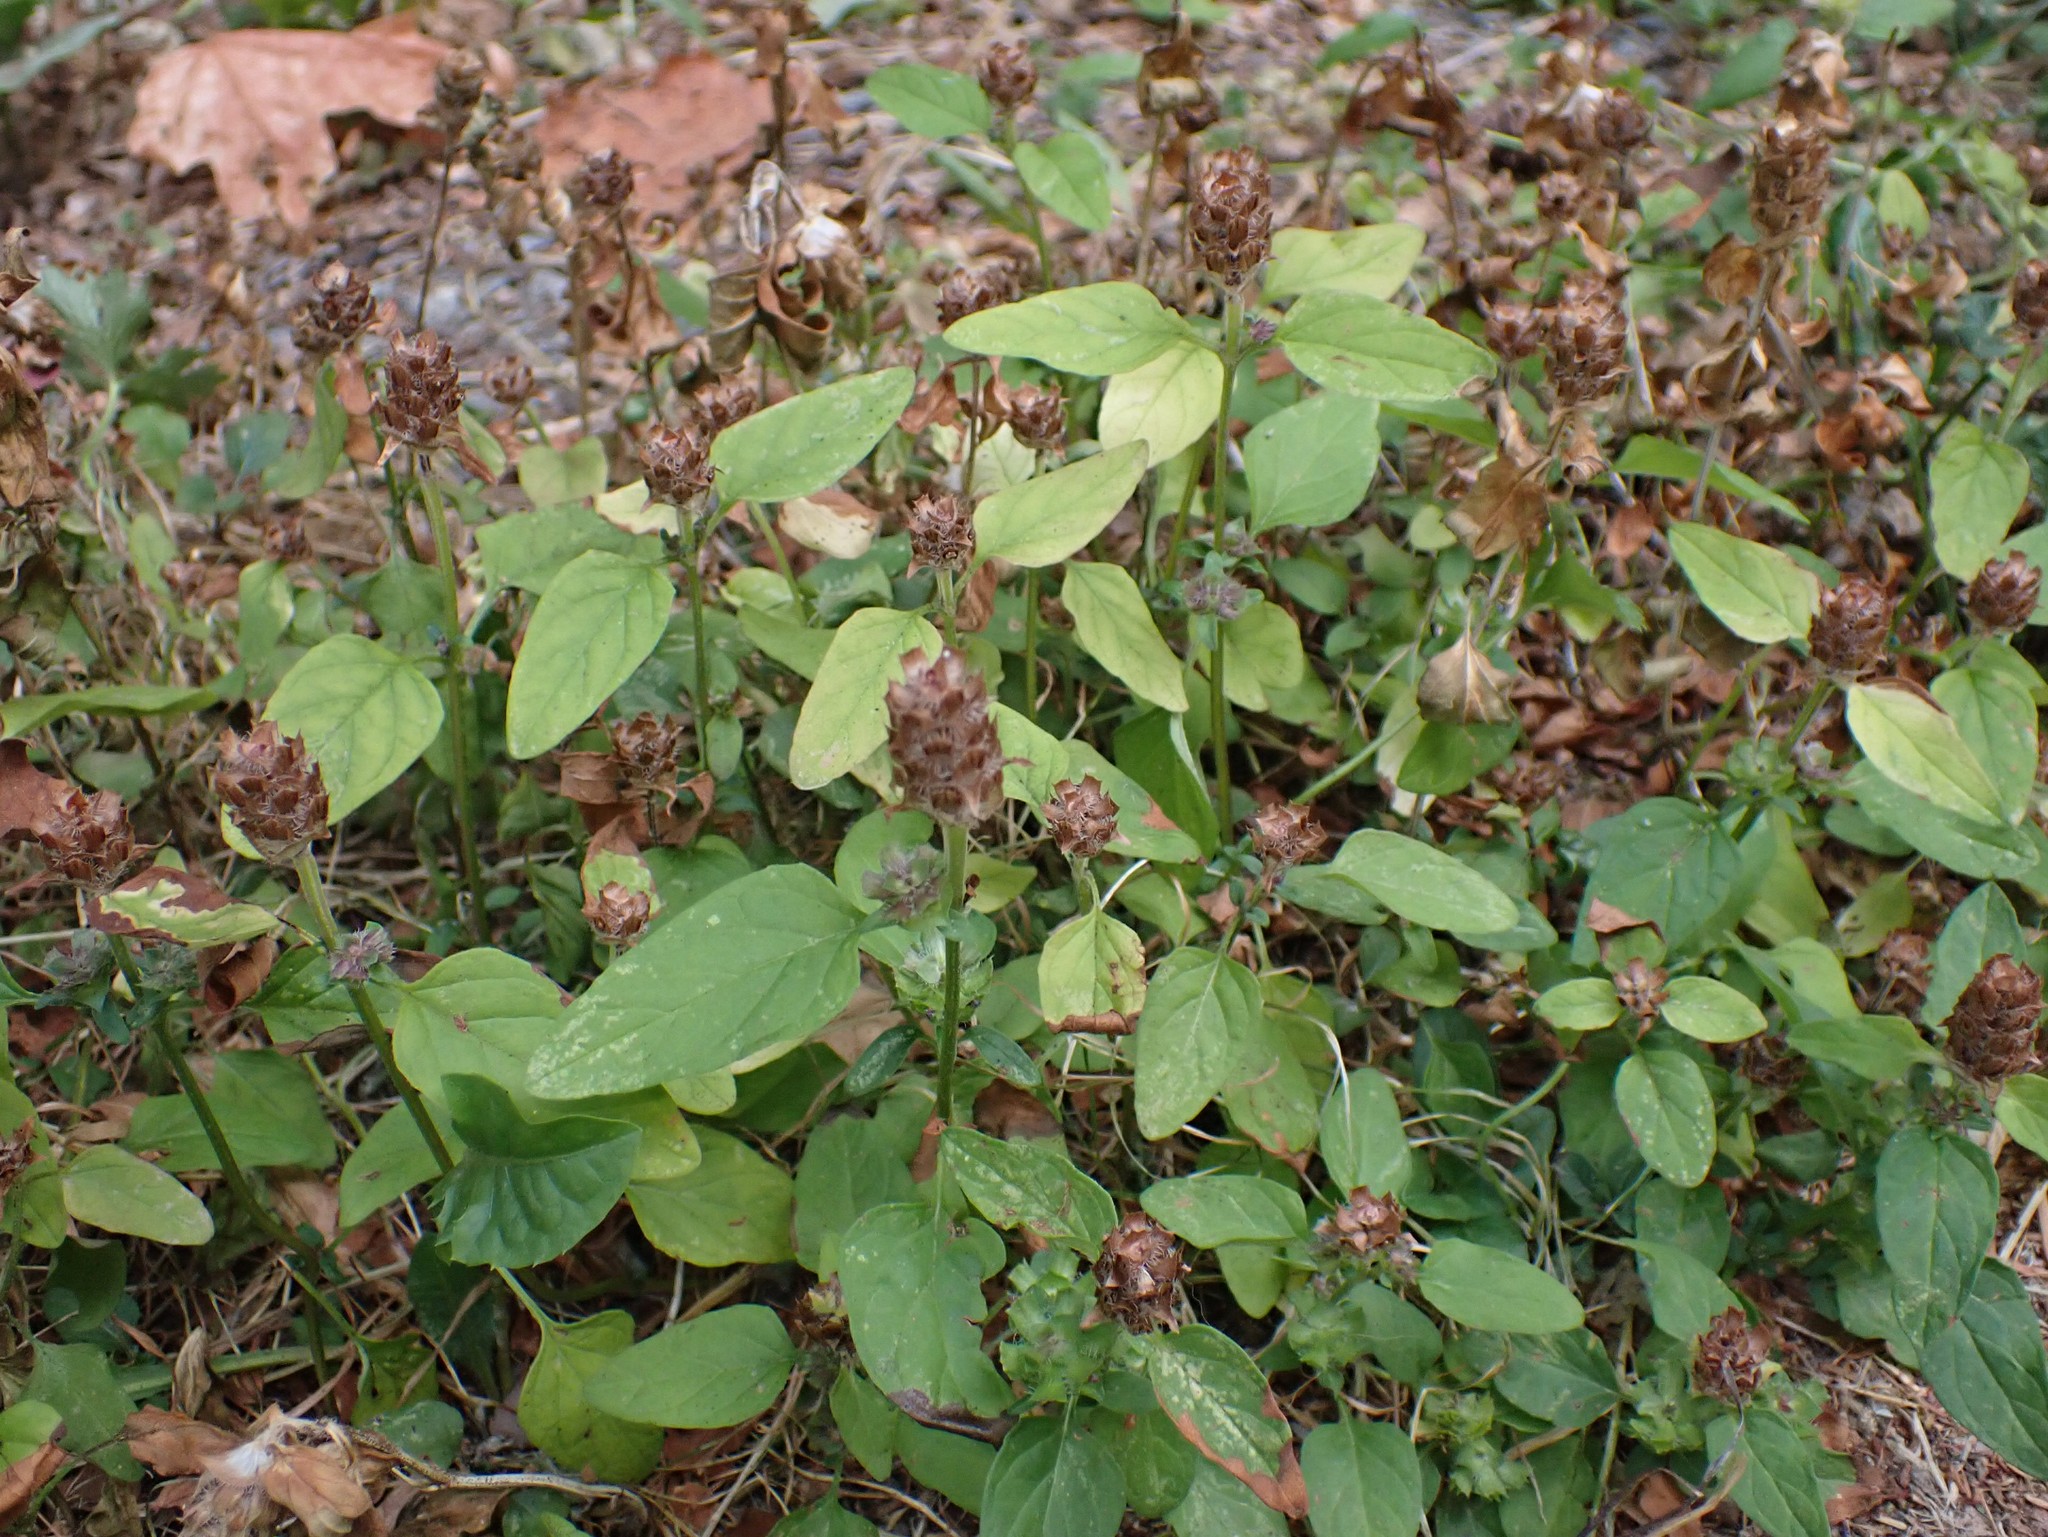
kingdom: Plantae
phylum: Tracheophyta
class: Magnoliopsida
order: Lamiales
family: Lamiaceae
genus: Prunella
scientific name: Prunella vulgaris
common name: Heal-all
